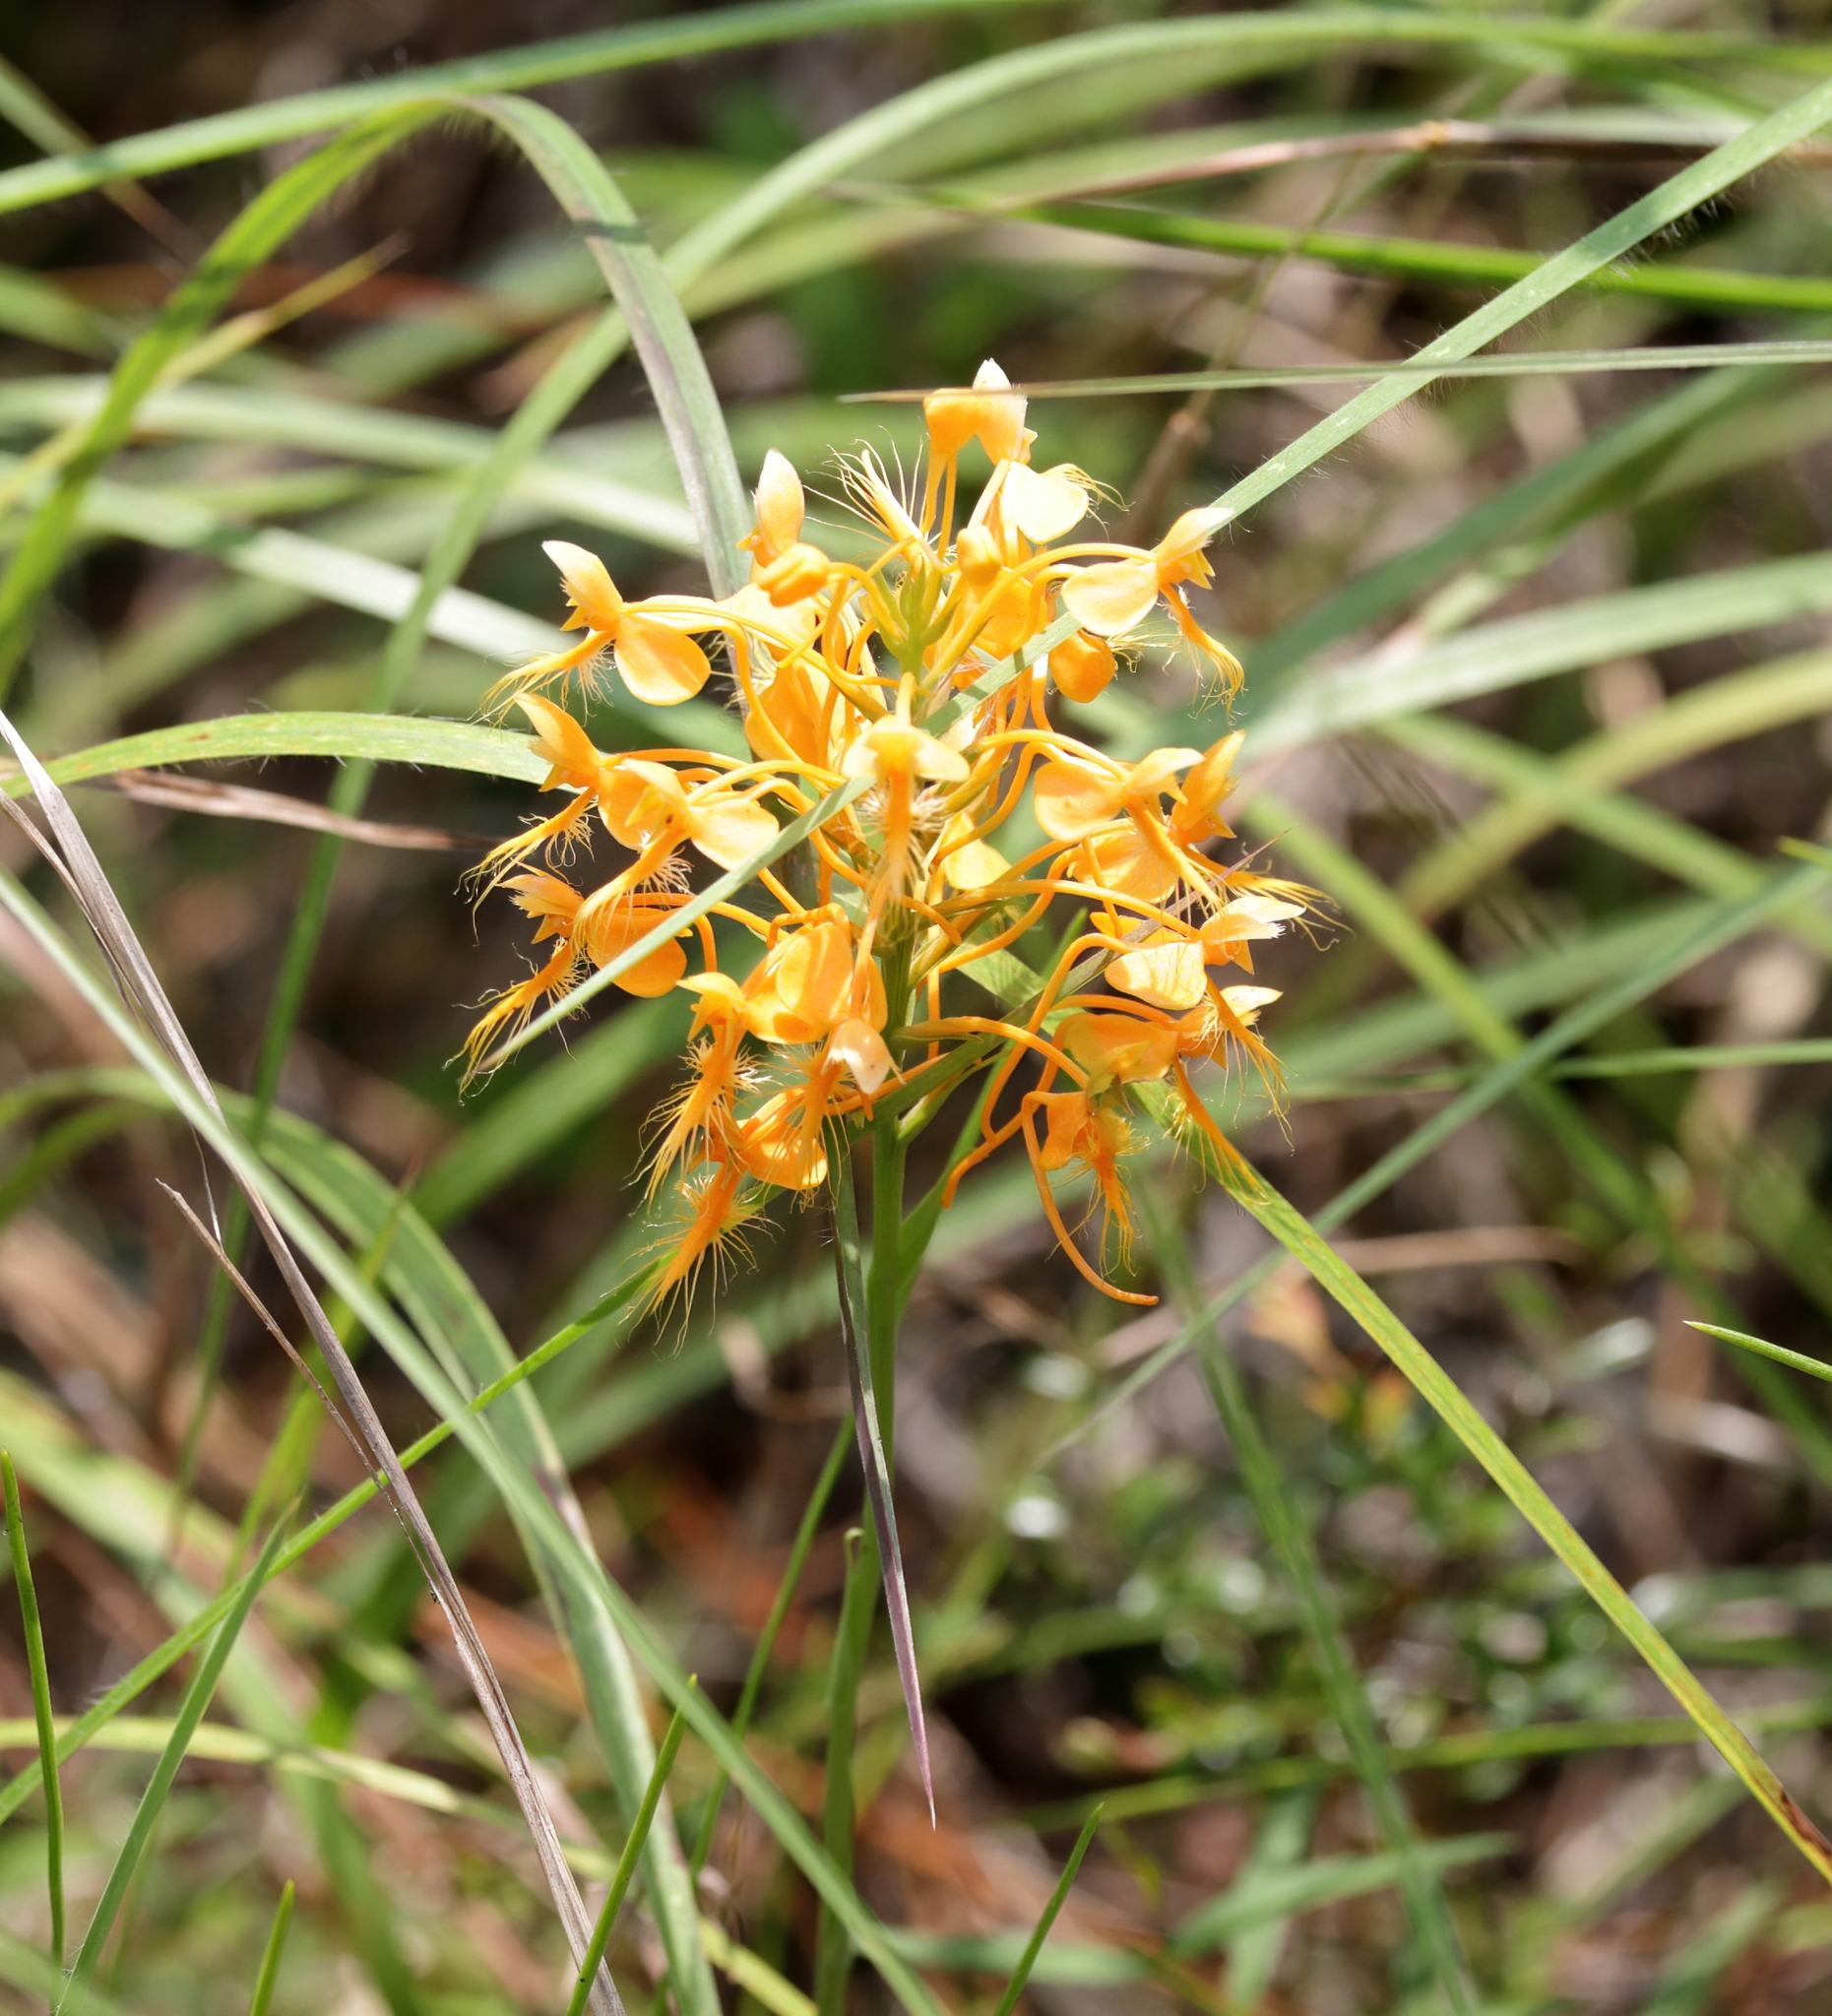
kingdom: Plantae
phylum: Tracheophyta
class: Liliopsida
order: Asparagales
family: Orchidaceae
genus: Platanthera
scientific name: Platanthera ciliaris
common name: Yellow fringed orchid
